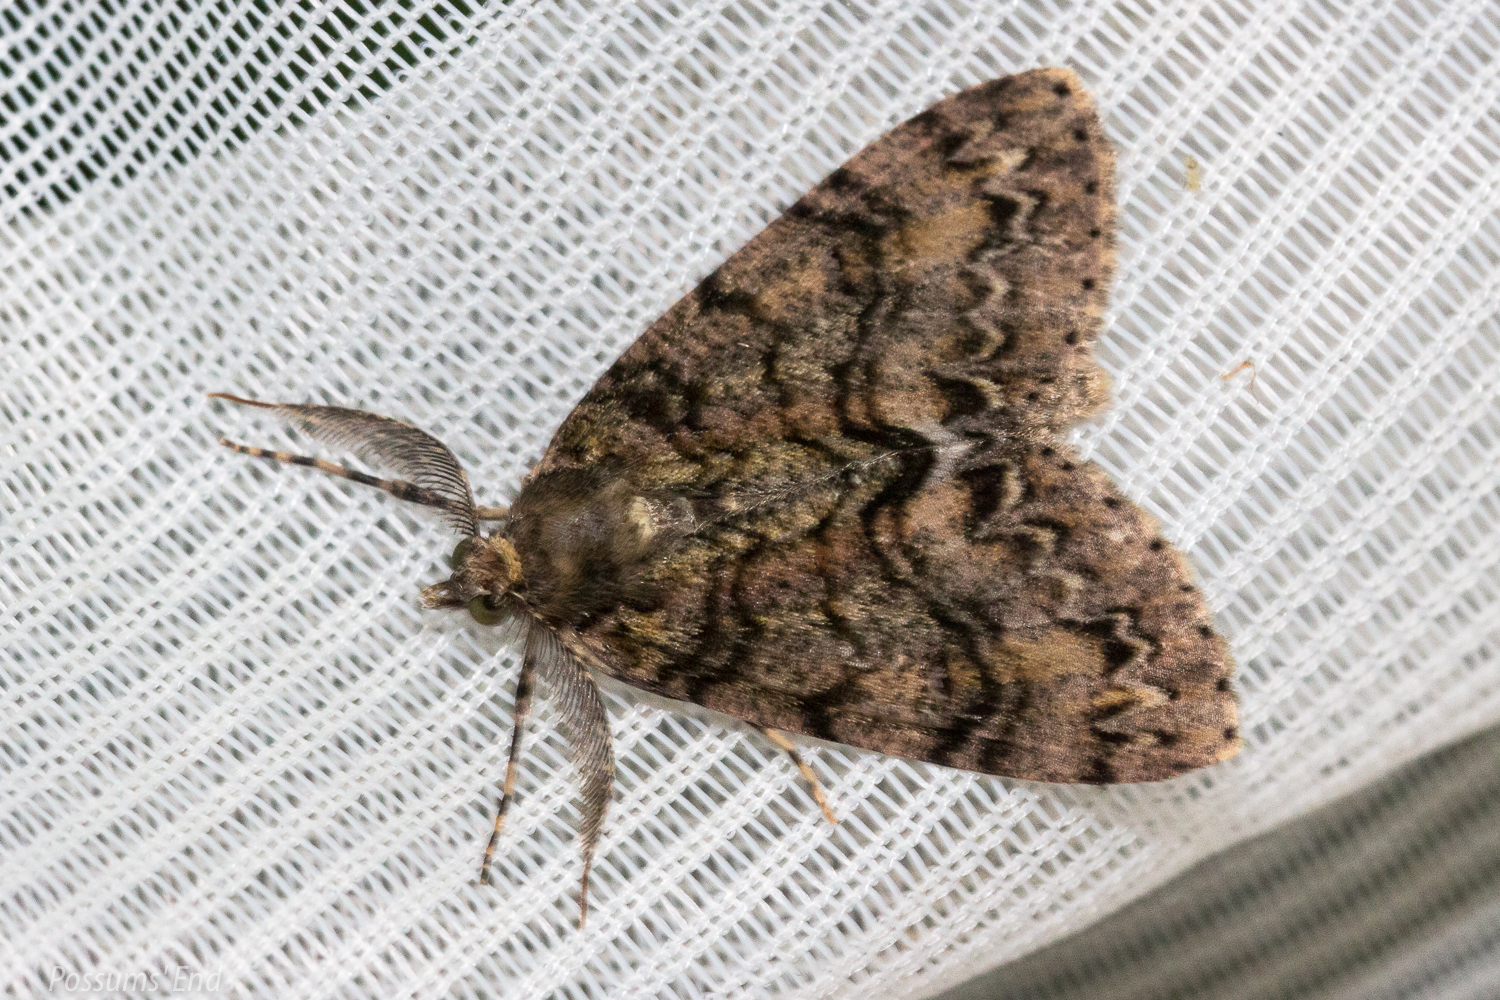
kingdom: Animalia
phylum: Arthropoda
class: Insecta
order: Lepidoptera
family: Geometridae
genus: Pseudocoremia
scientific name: Pseudocoremia suavis
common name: Common forest looper
